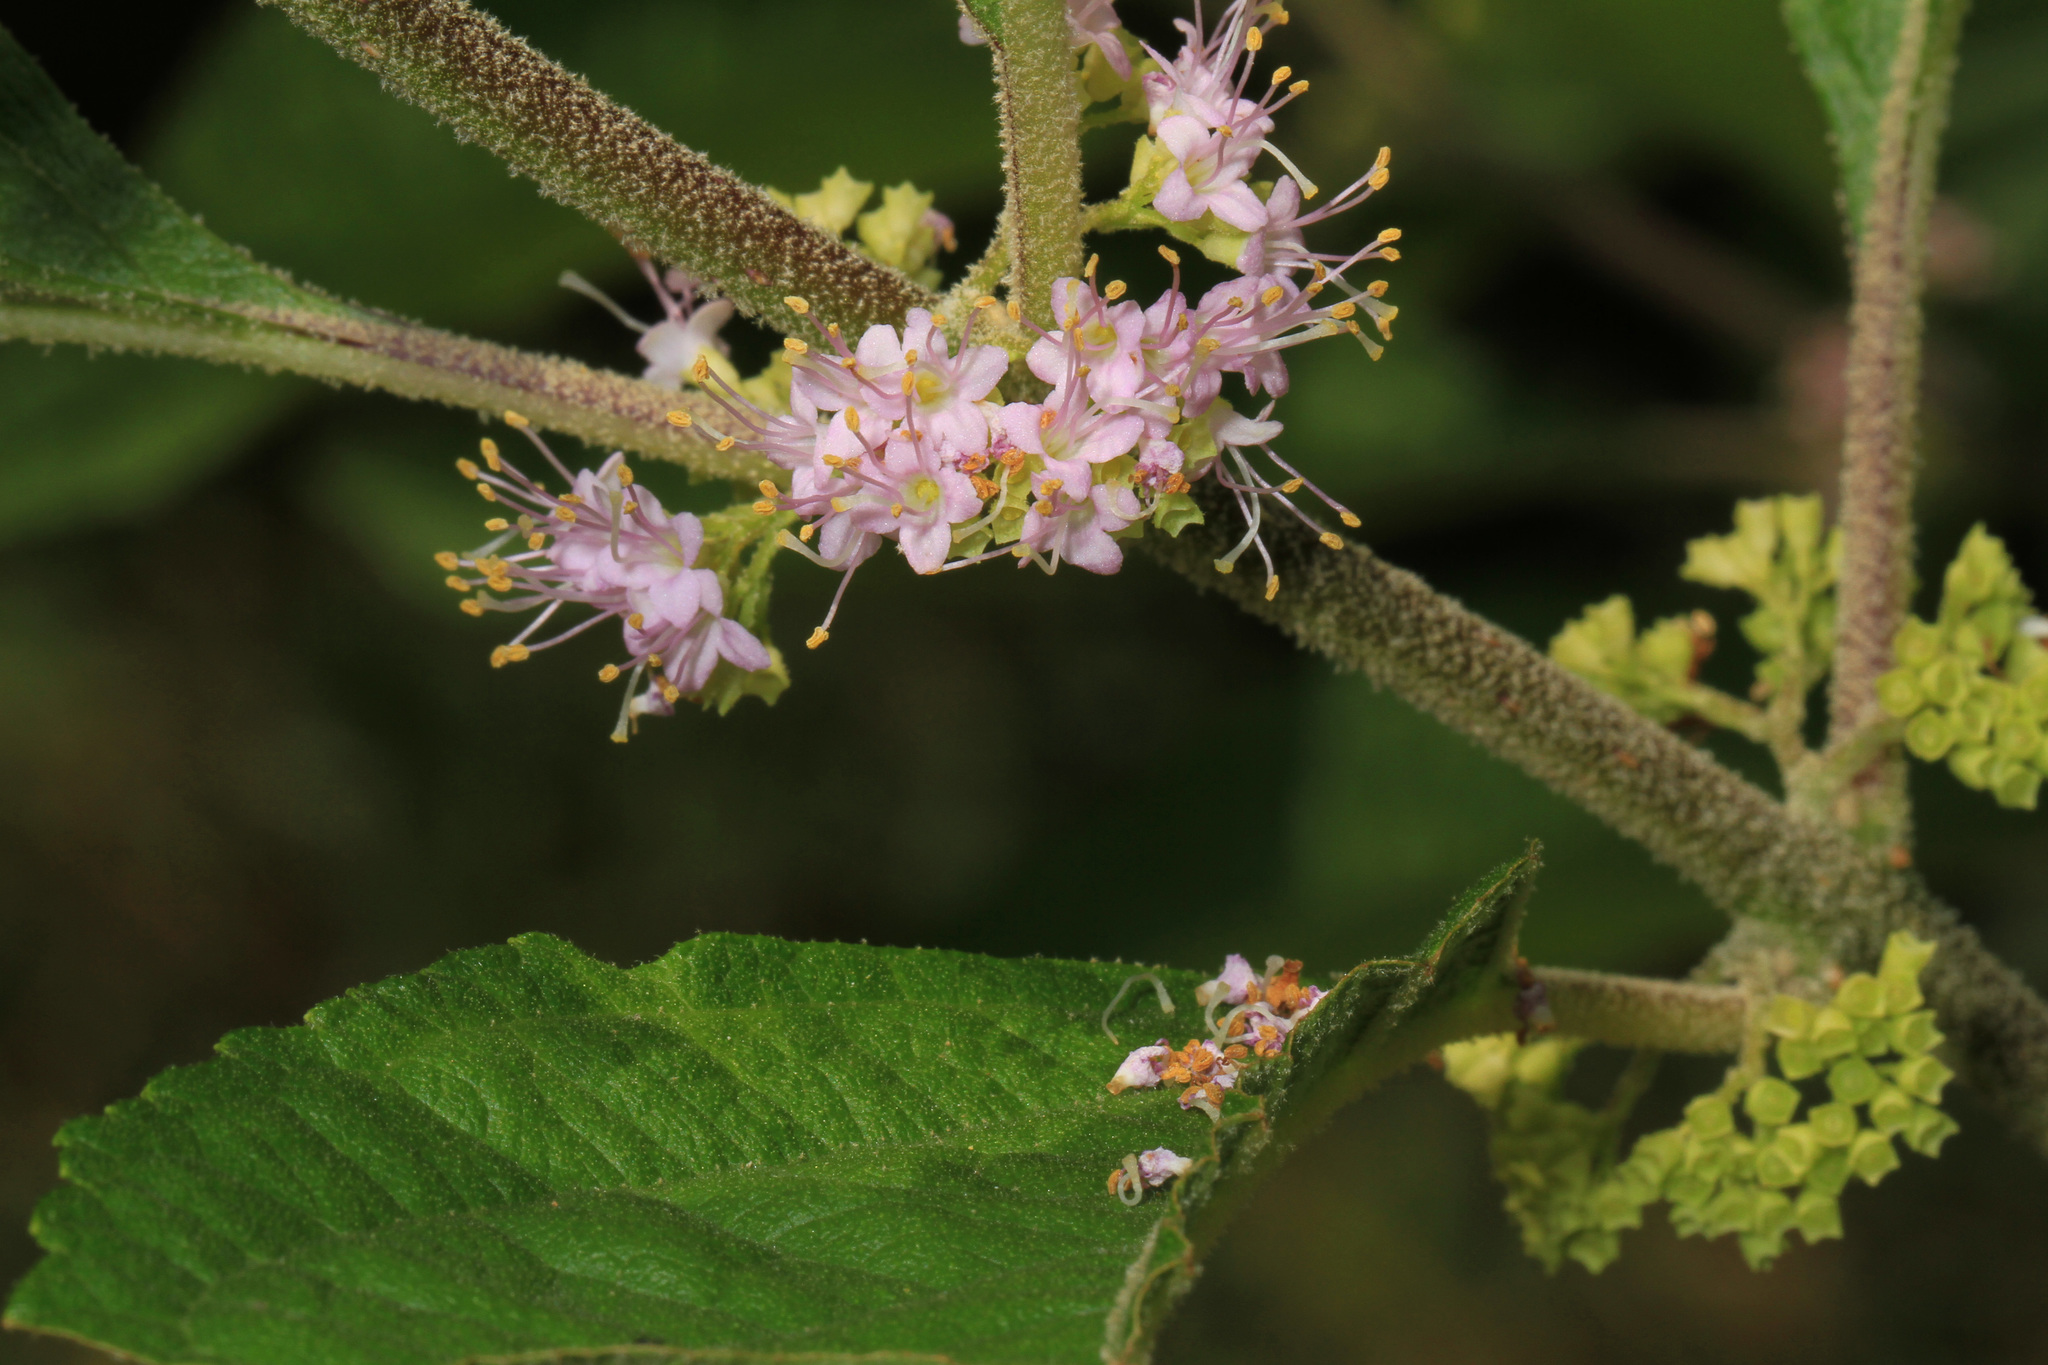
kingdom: Plantae
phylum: Tracheophyta
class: Magnoliopsida
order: Lamiales
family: Lamiaceae
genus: Callicarpa
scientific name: Callicarpa americana
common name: American beautyberry
